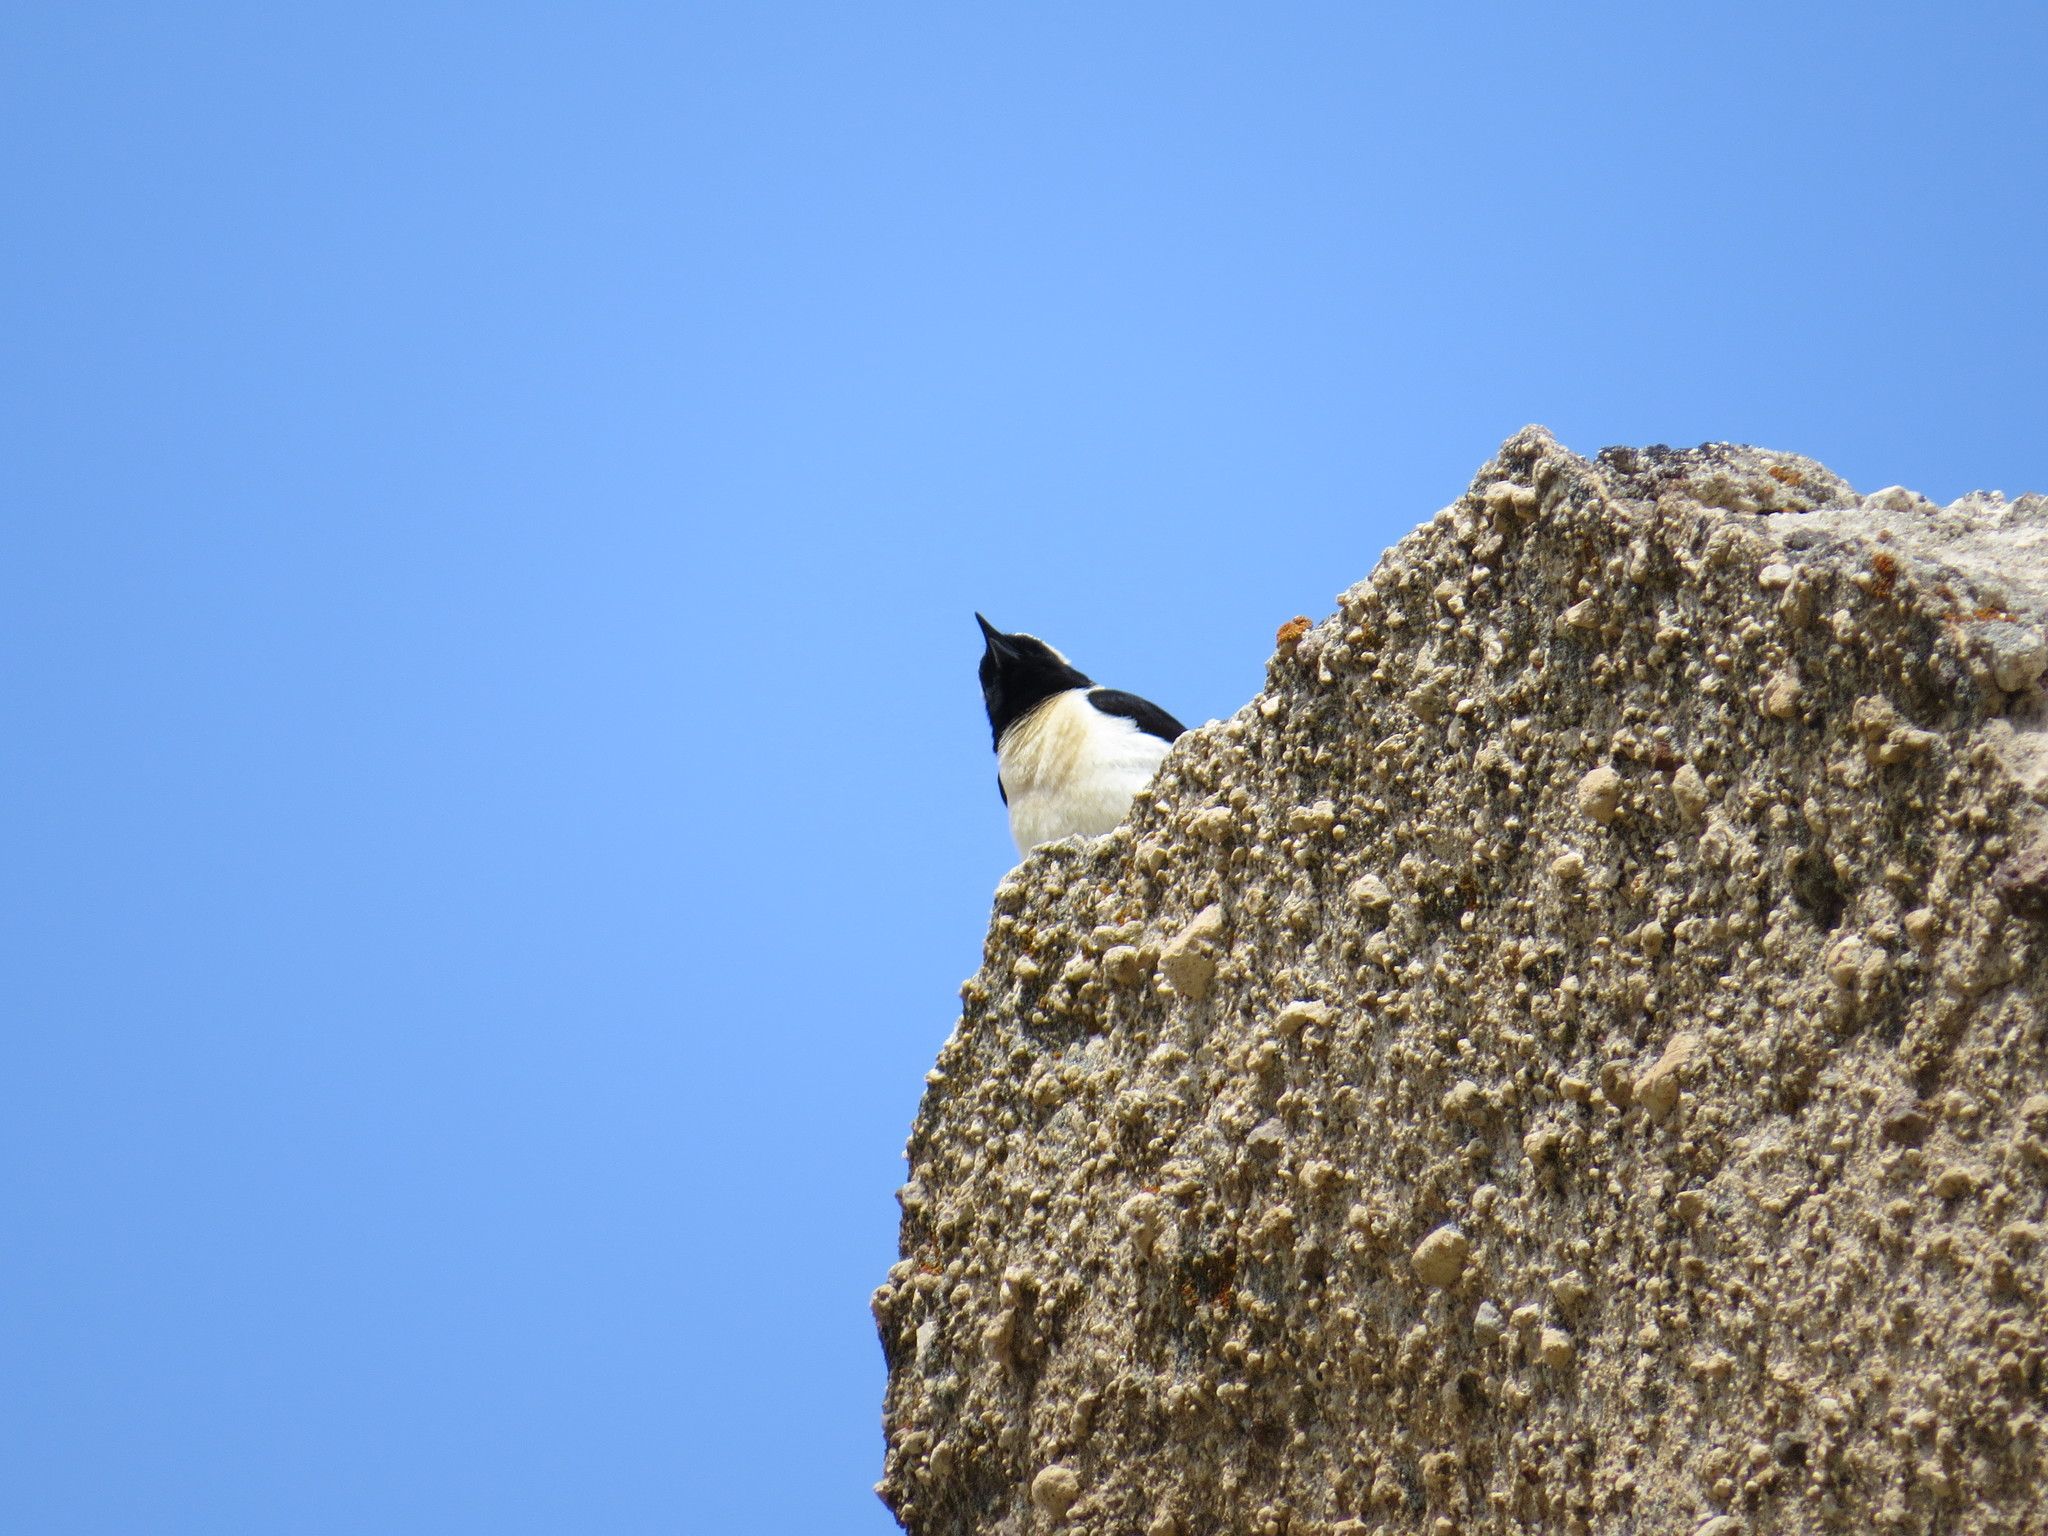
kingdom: Animalia
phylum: Chordata
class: Aves
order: Passeriformes
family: Muscicapidae
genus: Oenanthe
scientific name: Oenanthe hispanica
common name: Black-eared wheatear
